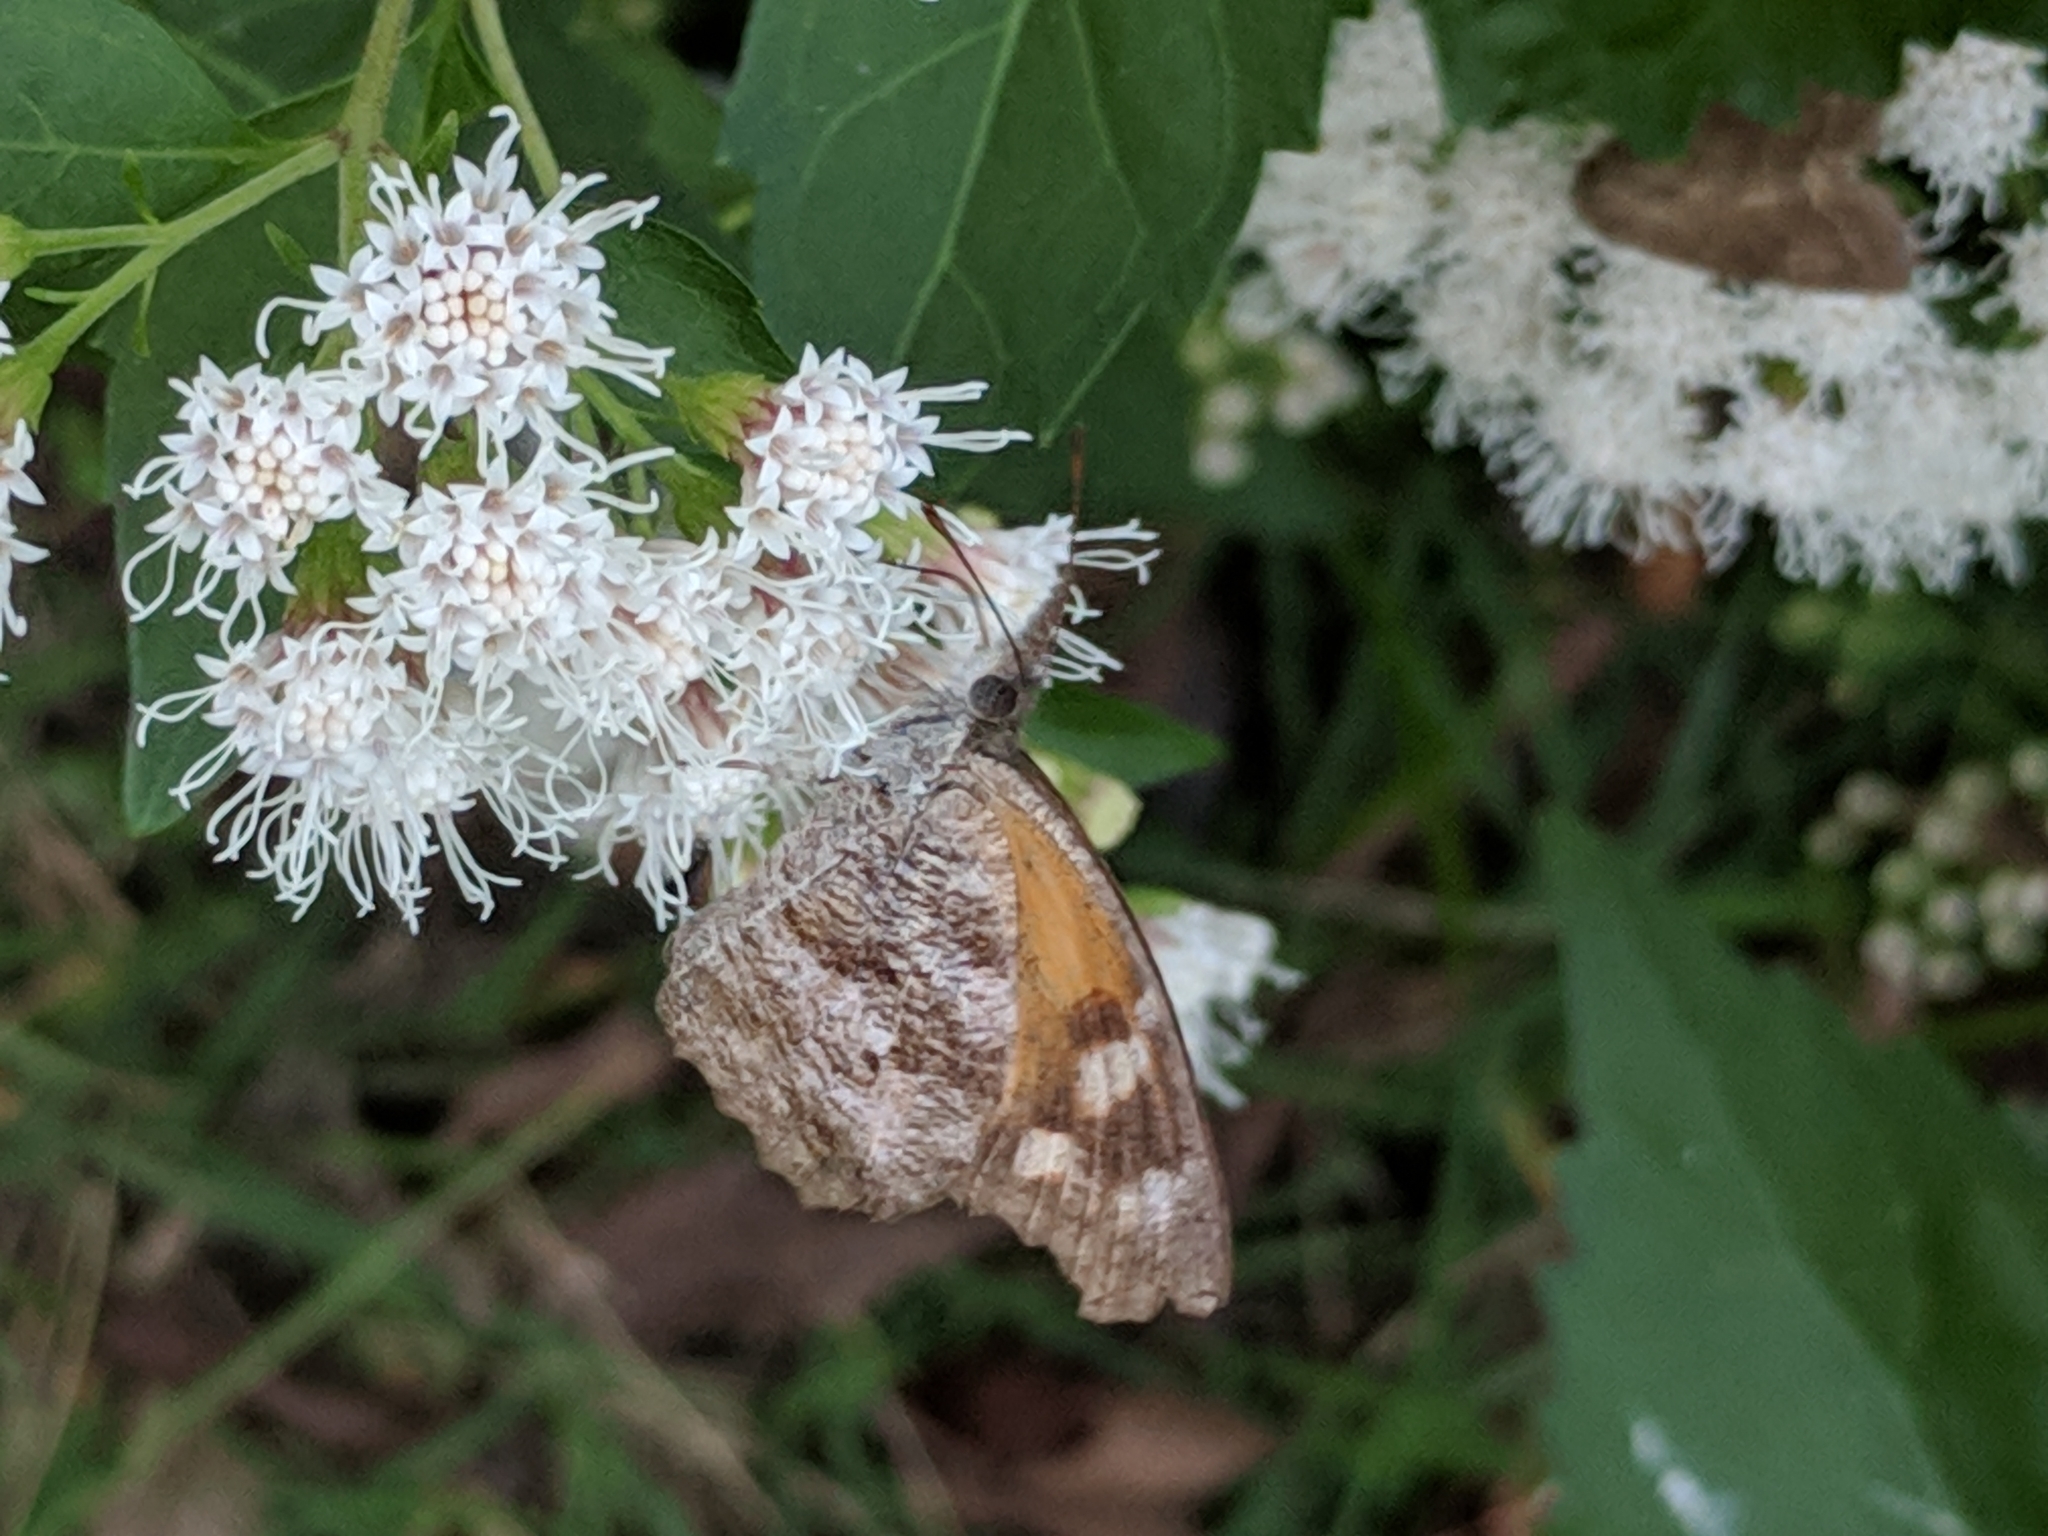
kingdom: Animalia
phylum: Arthropoda
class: Insecta
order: Lepidoptera
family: Nymphalidae
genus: Libytheana
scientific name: Libytheana carinenta
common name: American snout
